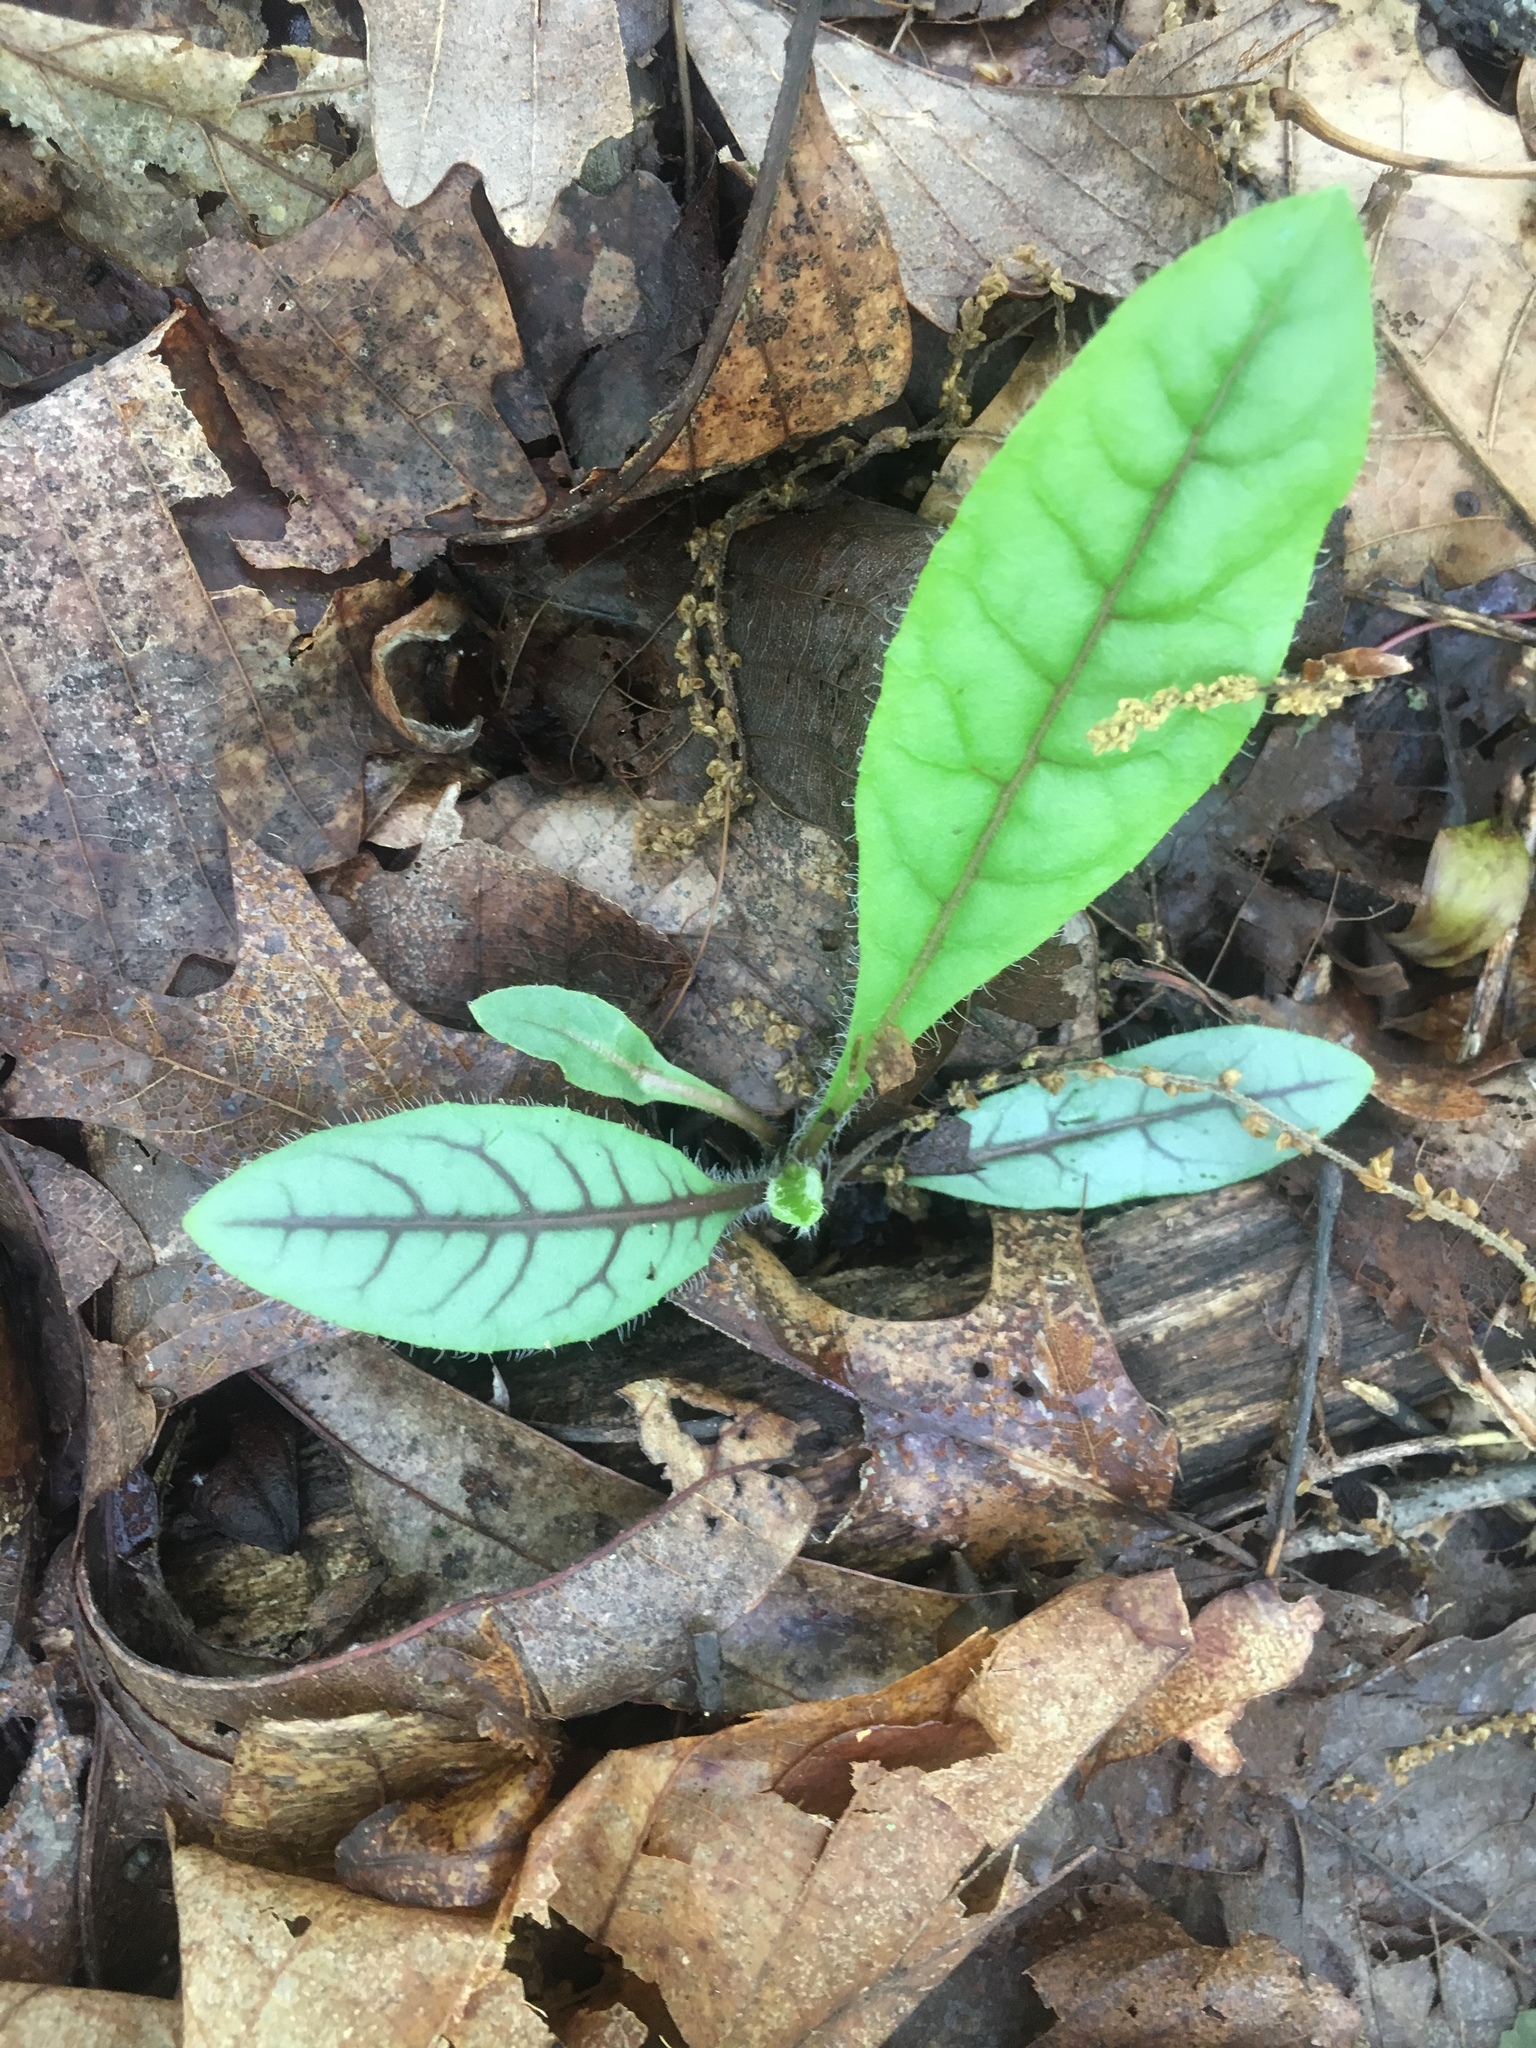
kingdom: Plantae
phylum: Tracheophyta
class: Magnoliopsida
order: Asterales
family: Asteraceae
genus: Hieracium
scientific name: Hieracium venosum
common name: Rattlesnake hawkweed
